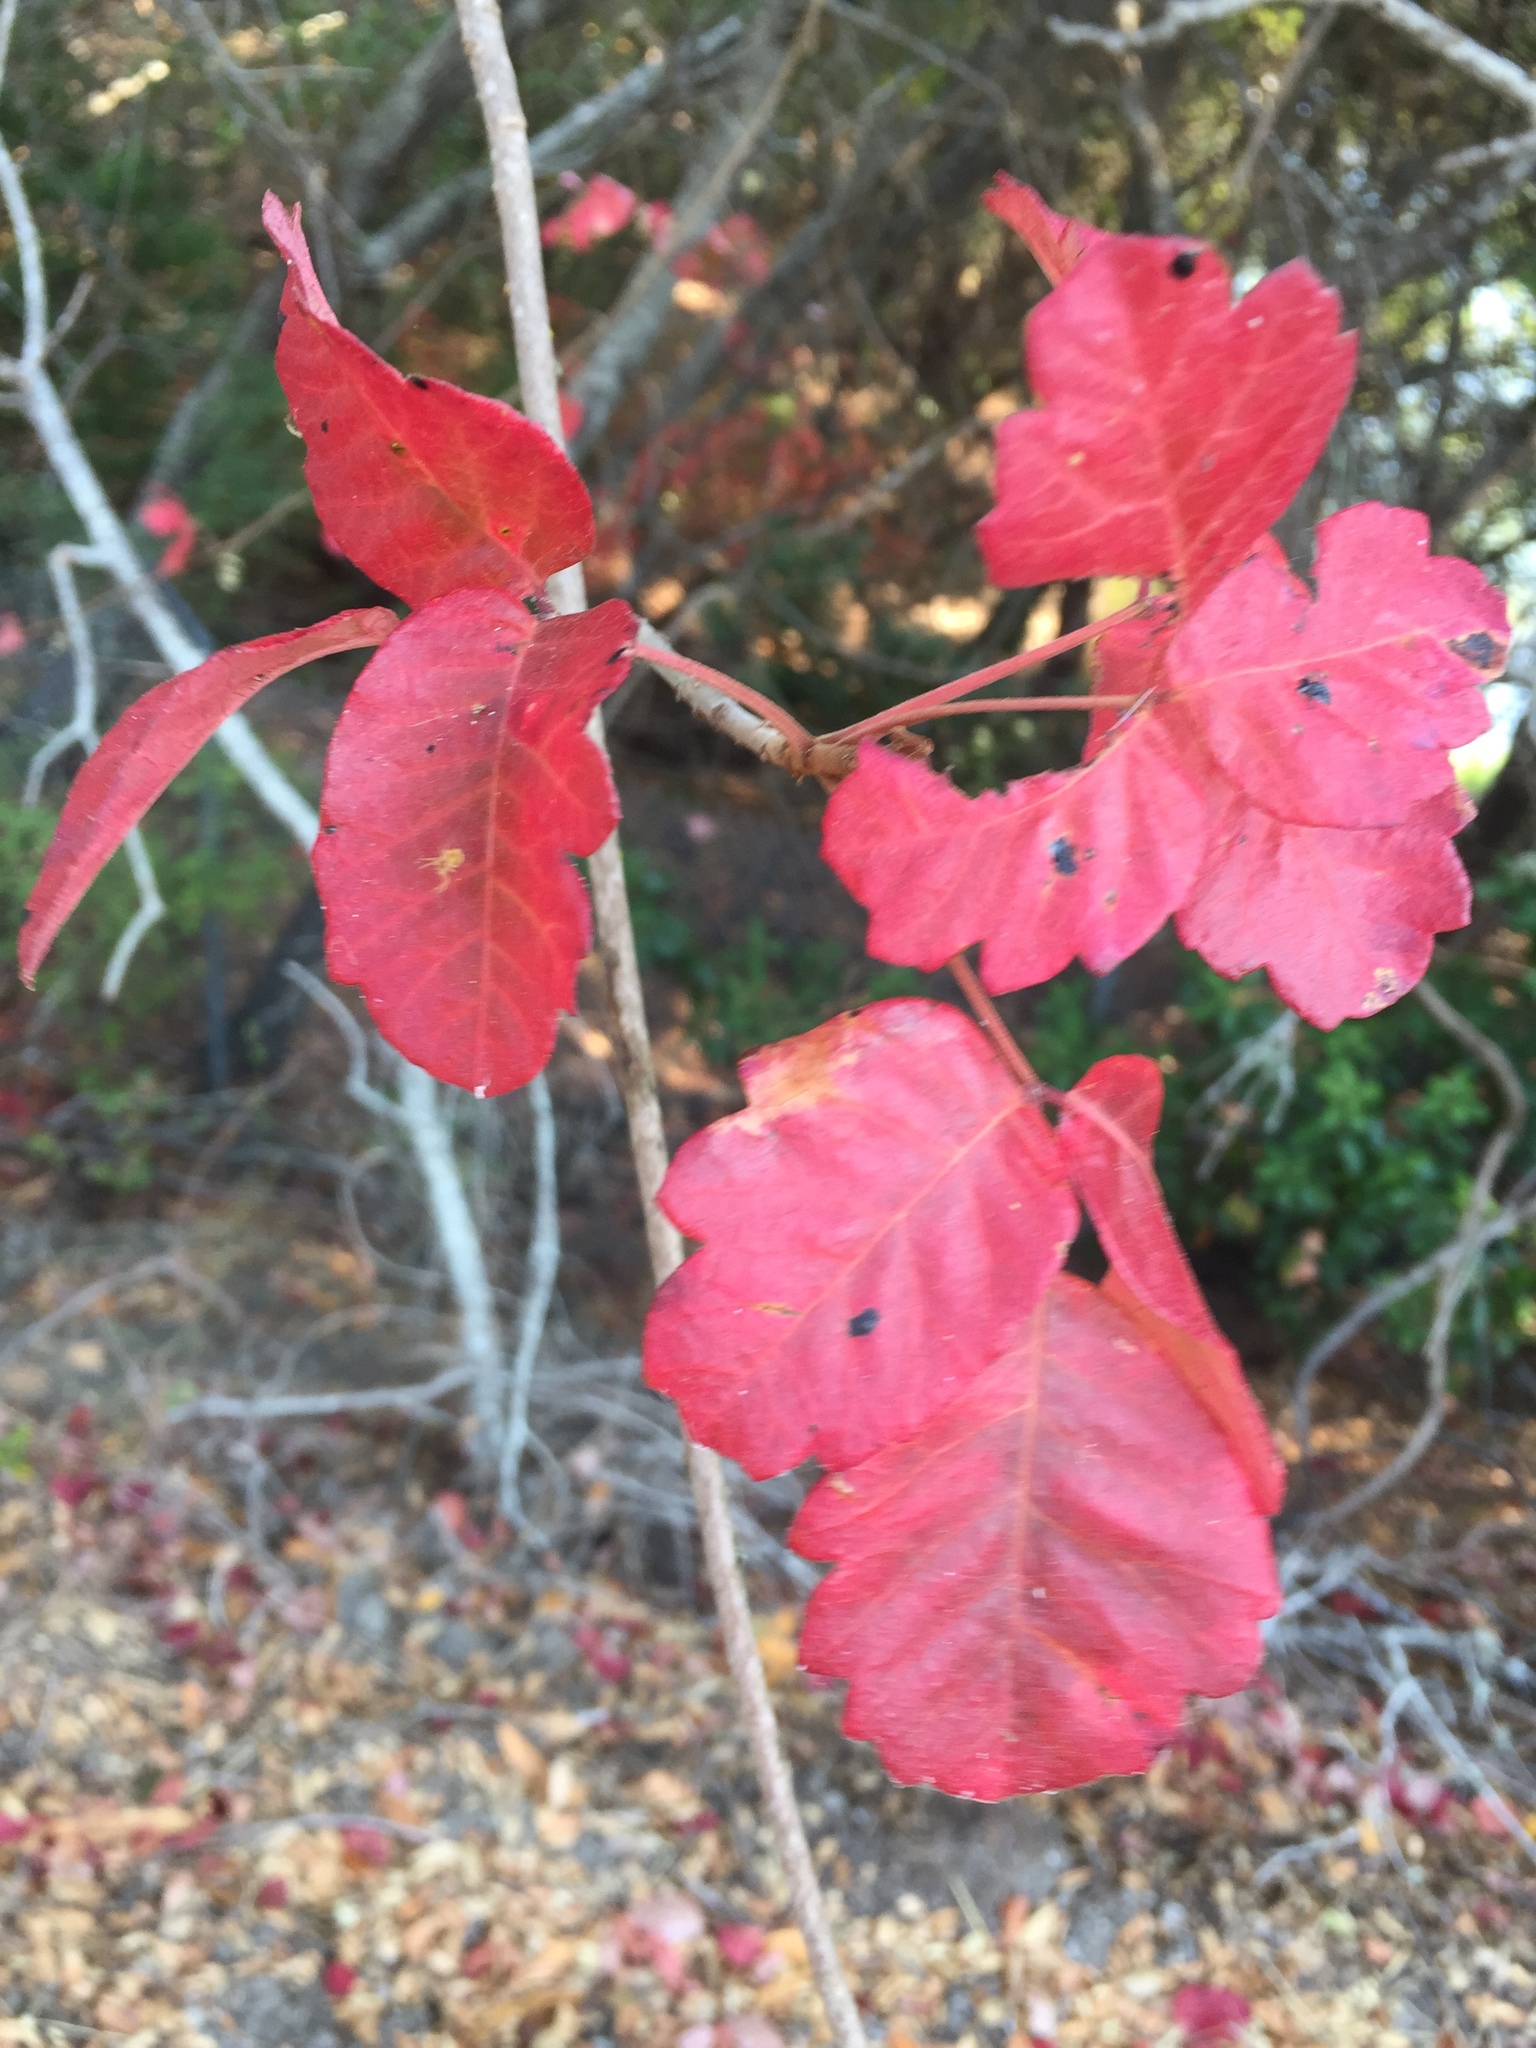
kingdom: Plantae
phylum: Tracheophyta
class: Magnoliopsida
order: Sapindales
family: Anacardiaceae
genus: Toxicodendron
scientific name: Toxicodendron diversilobum
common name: Pacific poison-oak
